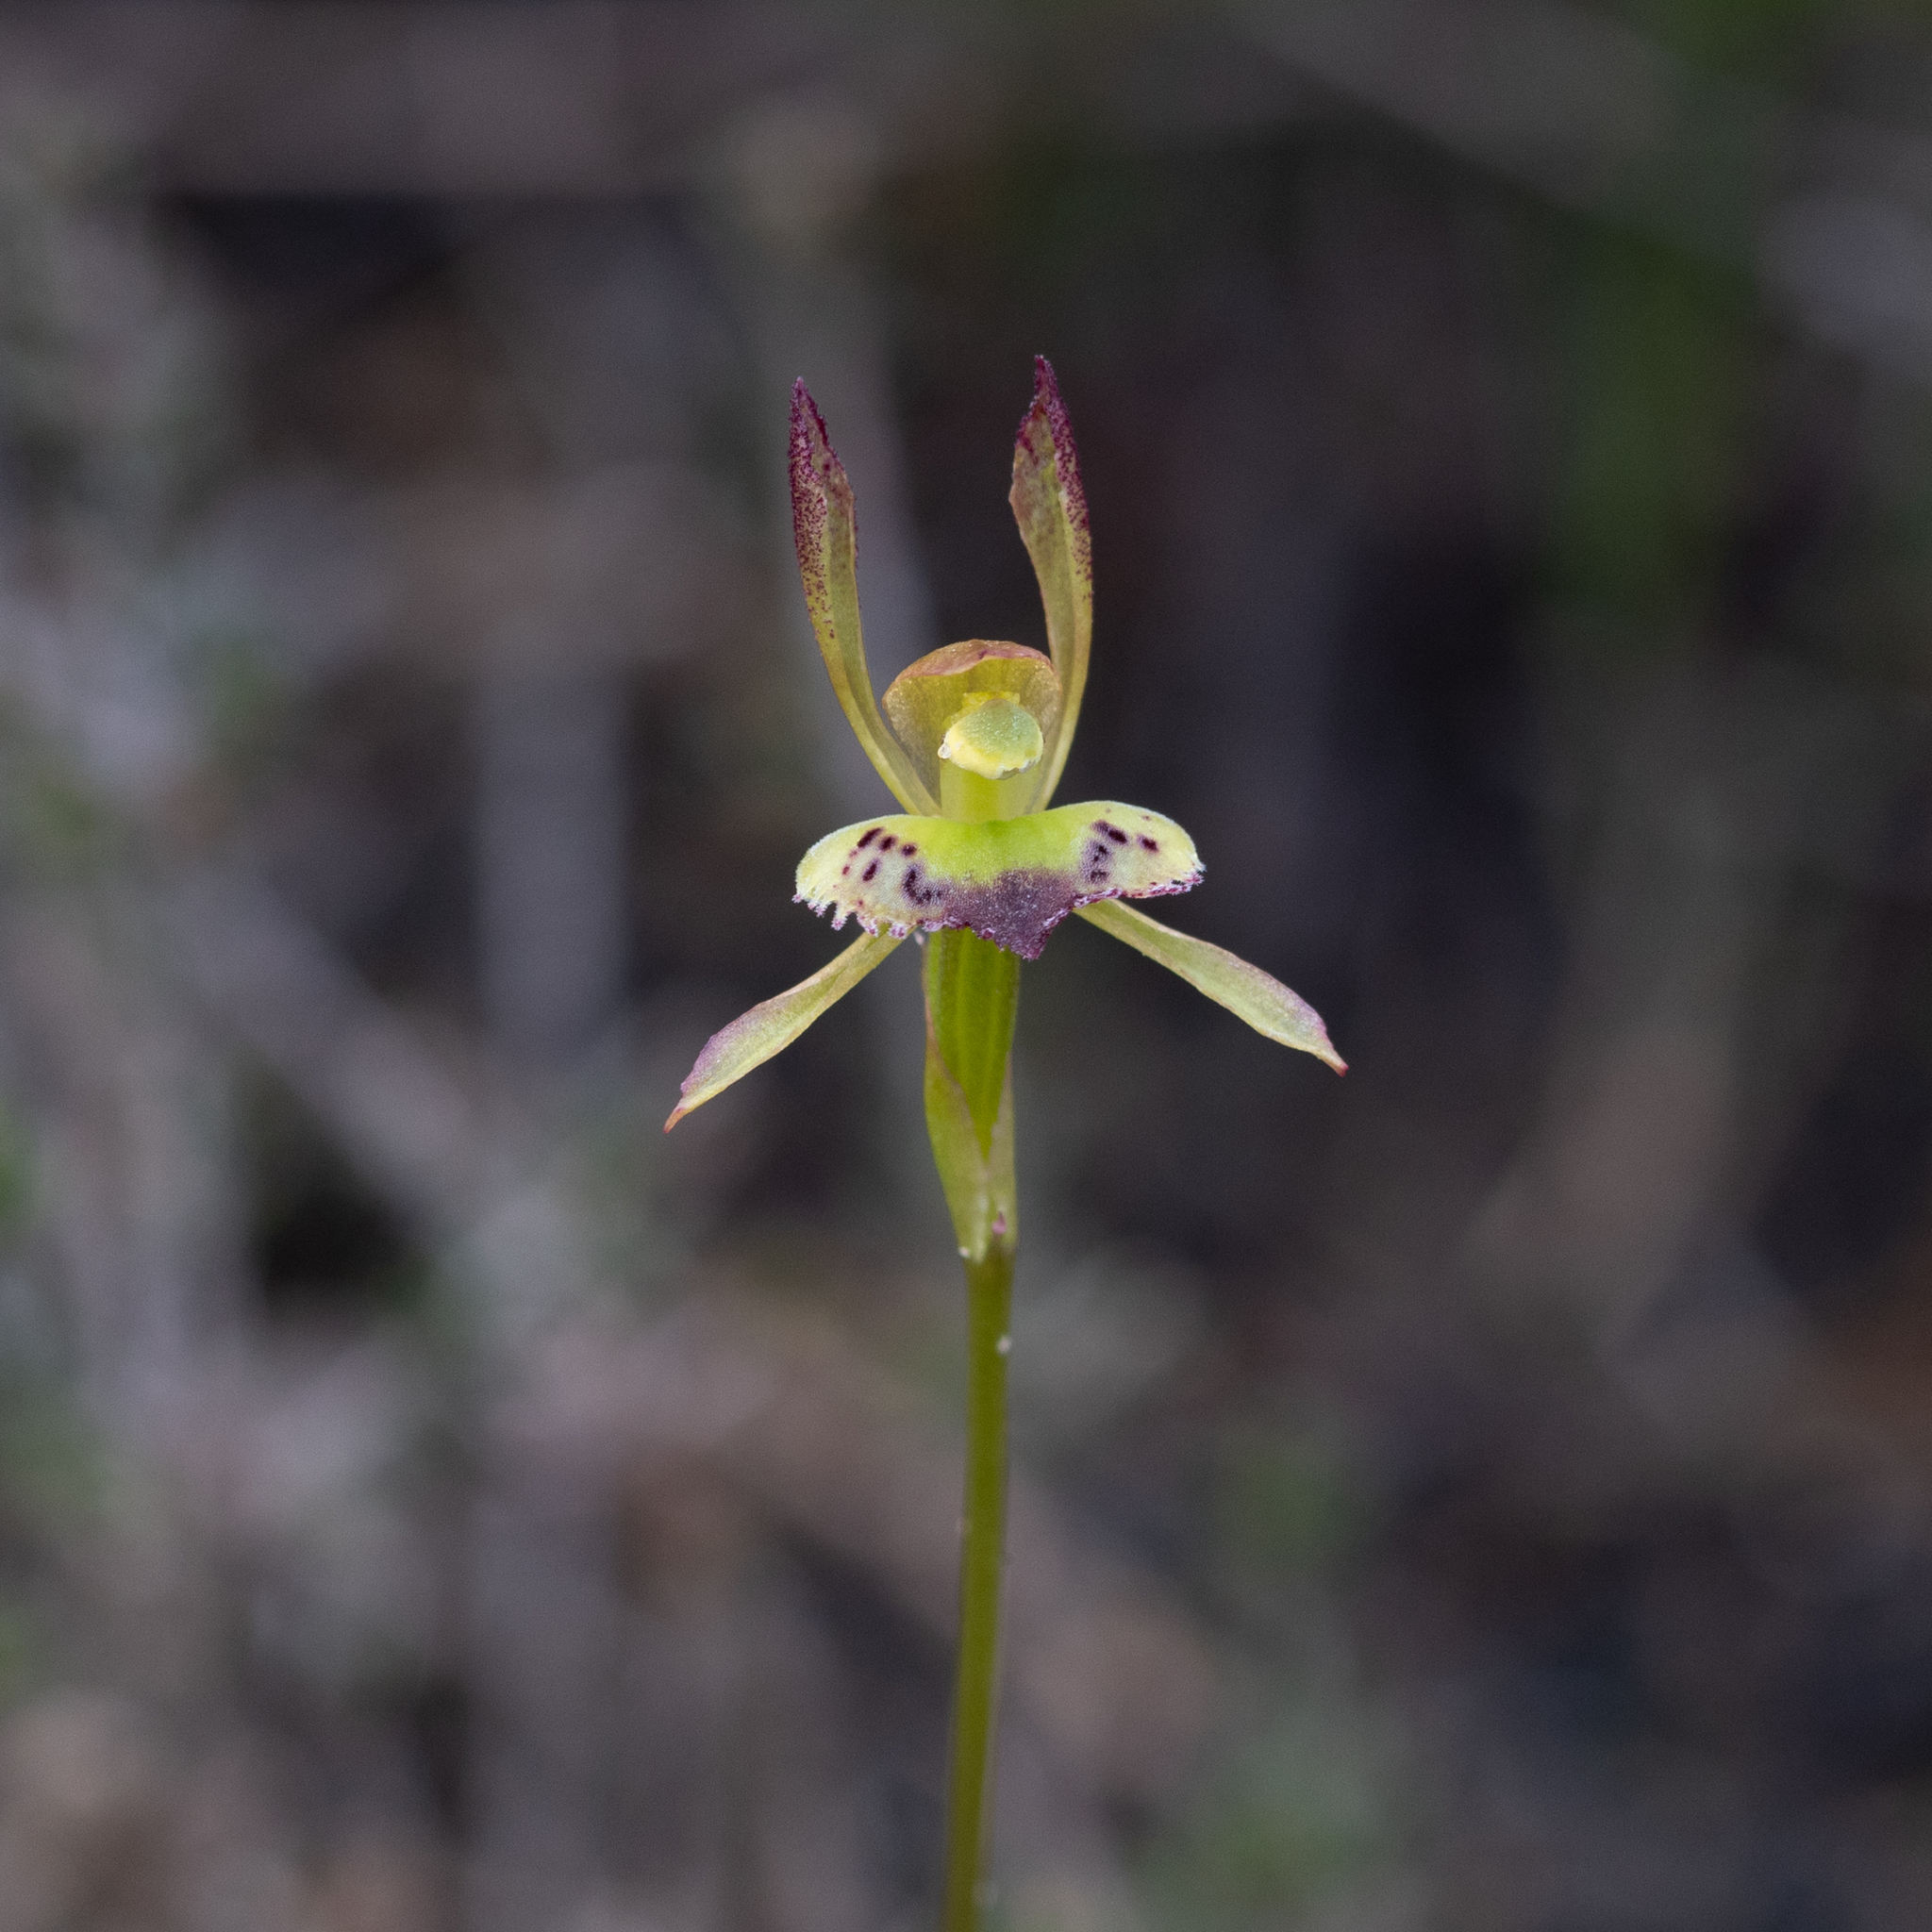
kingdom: Plantae
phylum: Tracheophyta
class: Liliopsida
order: Asparagales
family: Orchidaceae
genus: Leporella
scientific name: Leporella fimbriata
